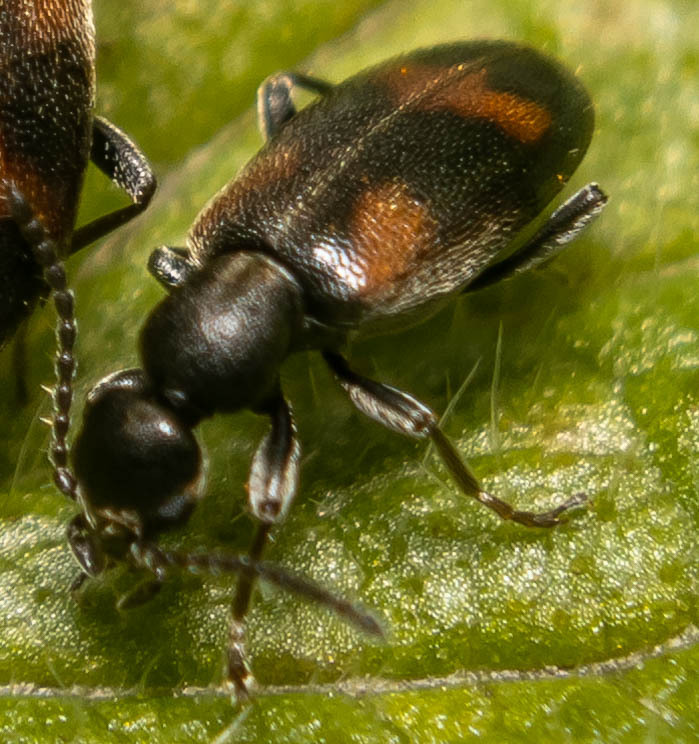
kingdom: Animalia
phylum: Arthropoda
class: Insecta
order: Coleoptera
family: Anthicidae
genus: Anthicus
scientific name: Anthicus antherinus
